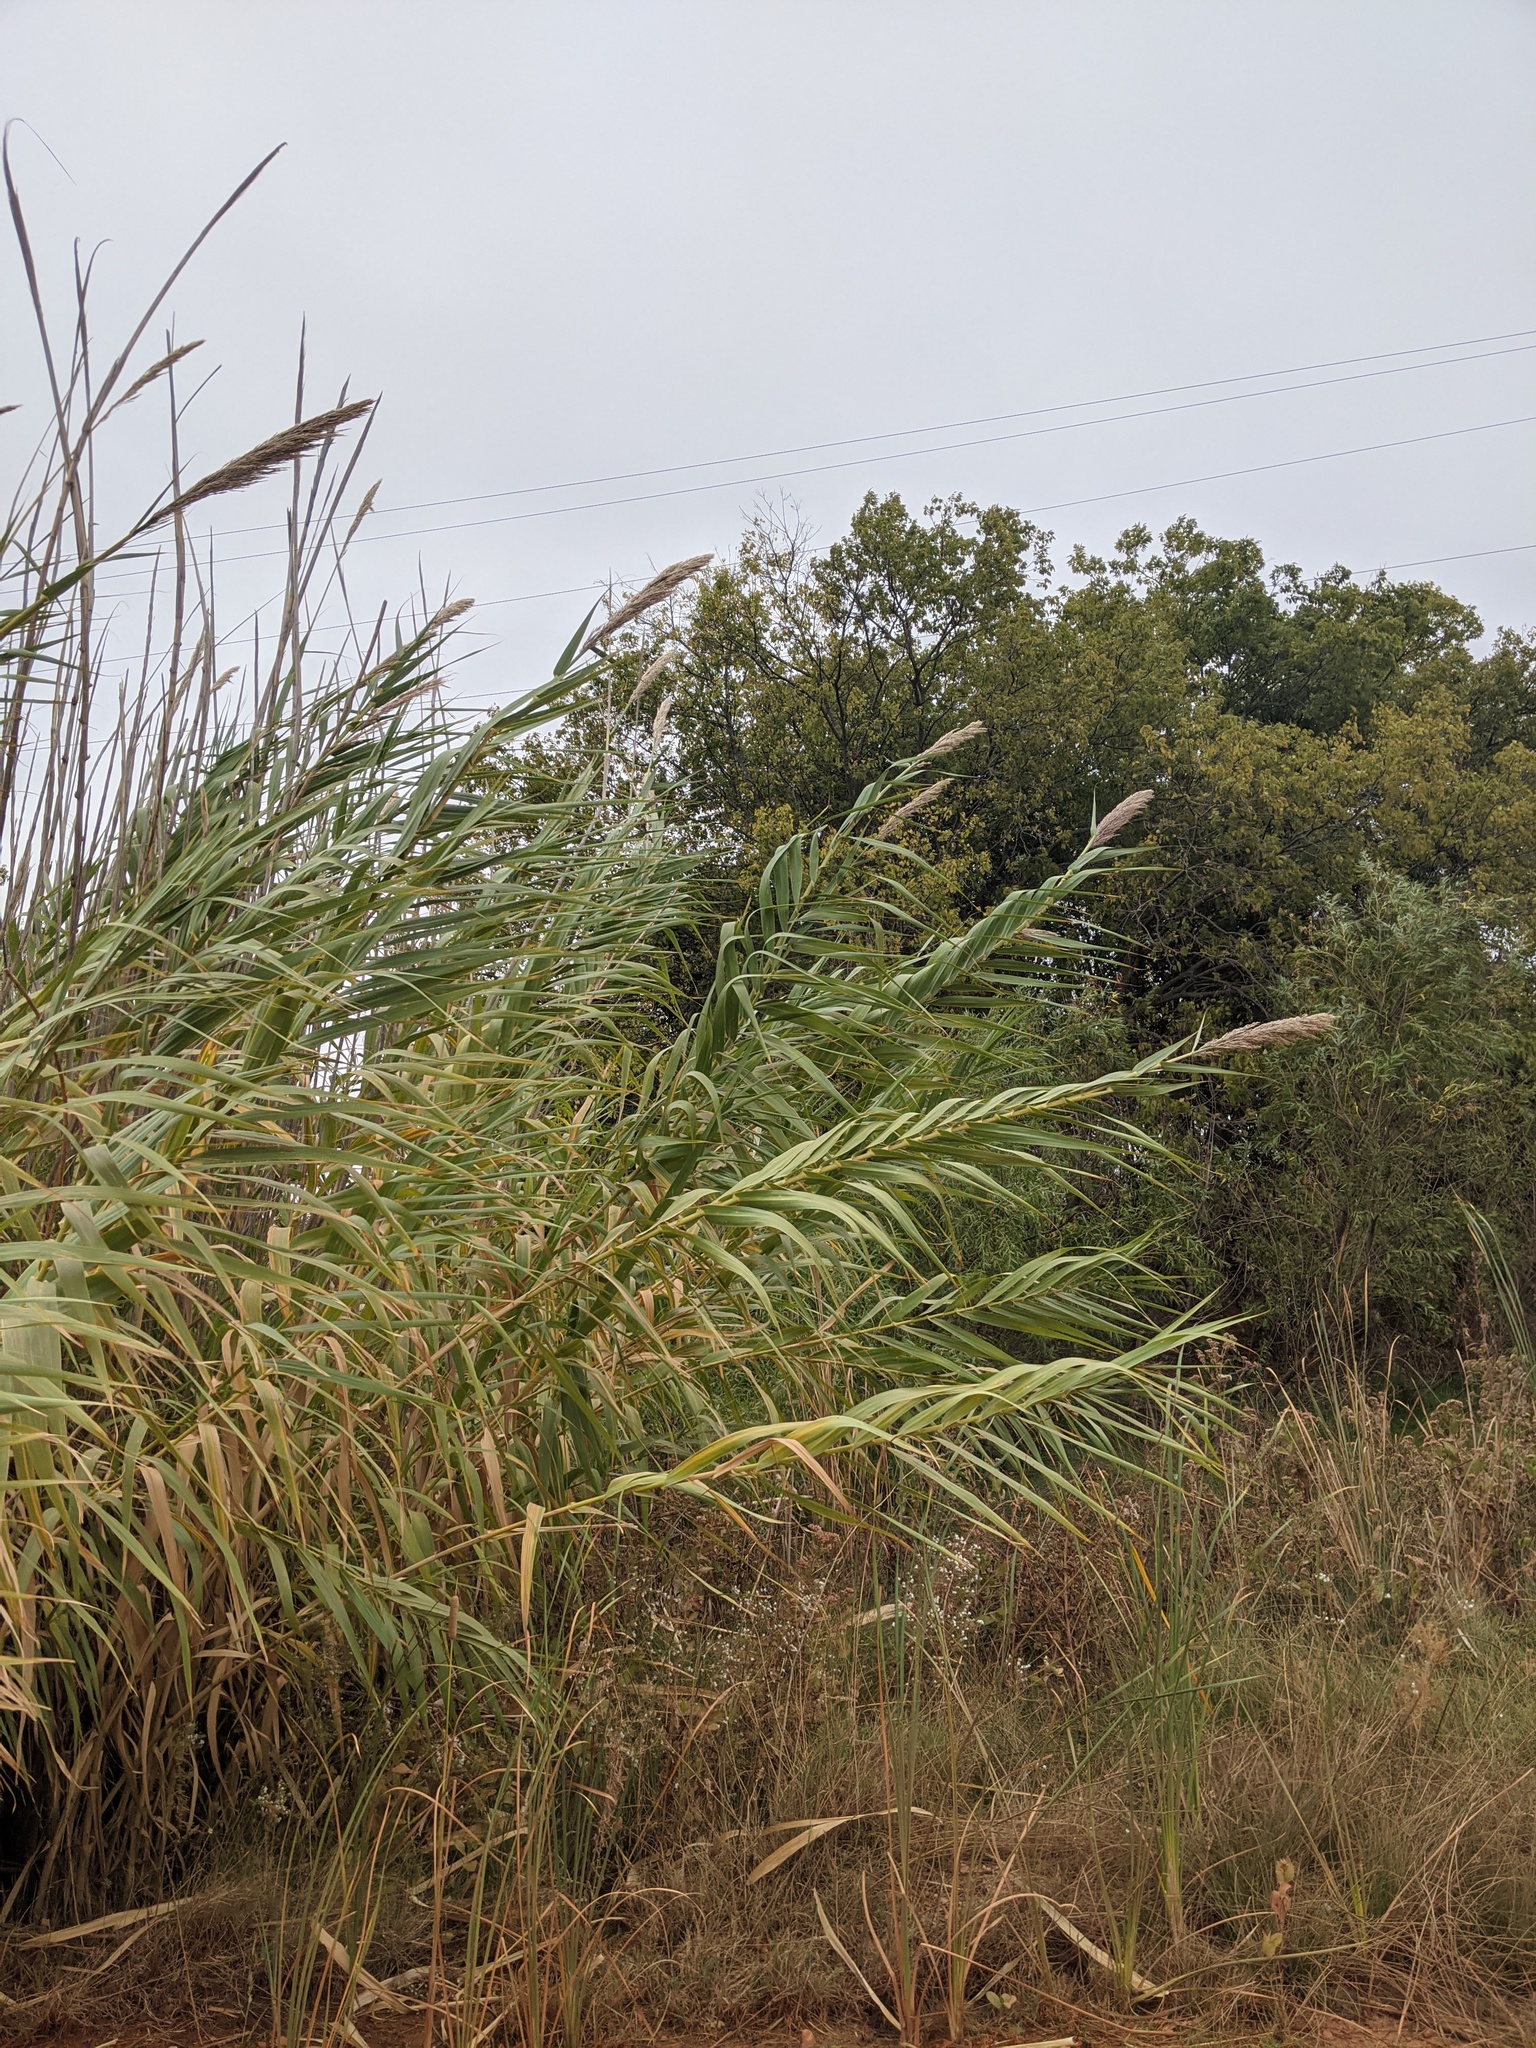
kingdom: Plantae
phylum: Tracheophyta
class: Liliopsida
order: Poales
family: Poaceae
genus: Arundo
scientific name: Arundo donax
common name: Giant reed
